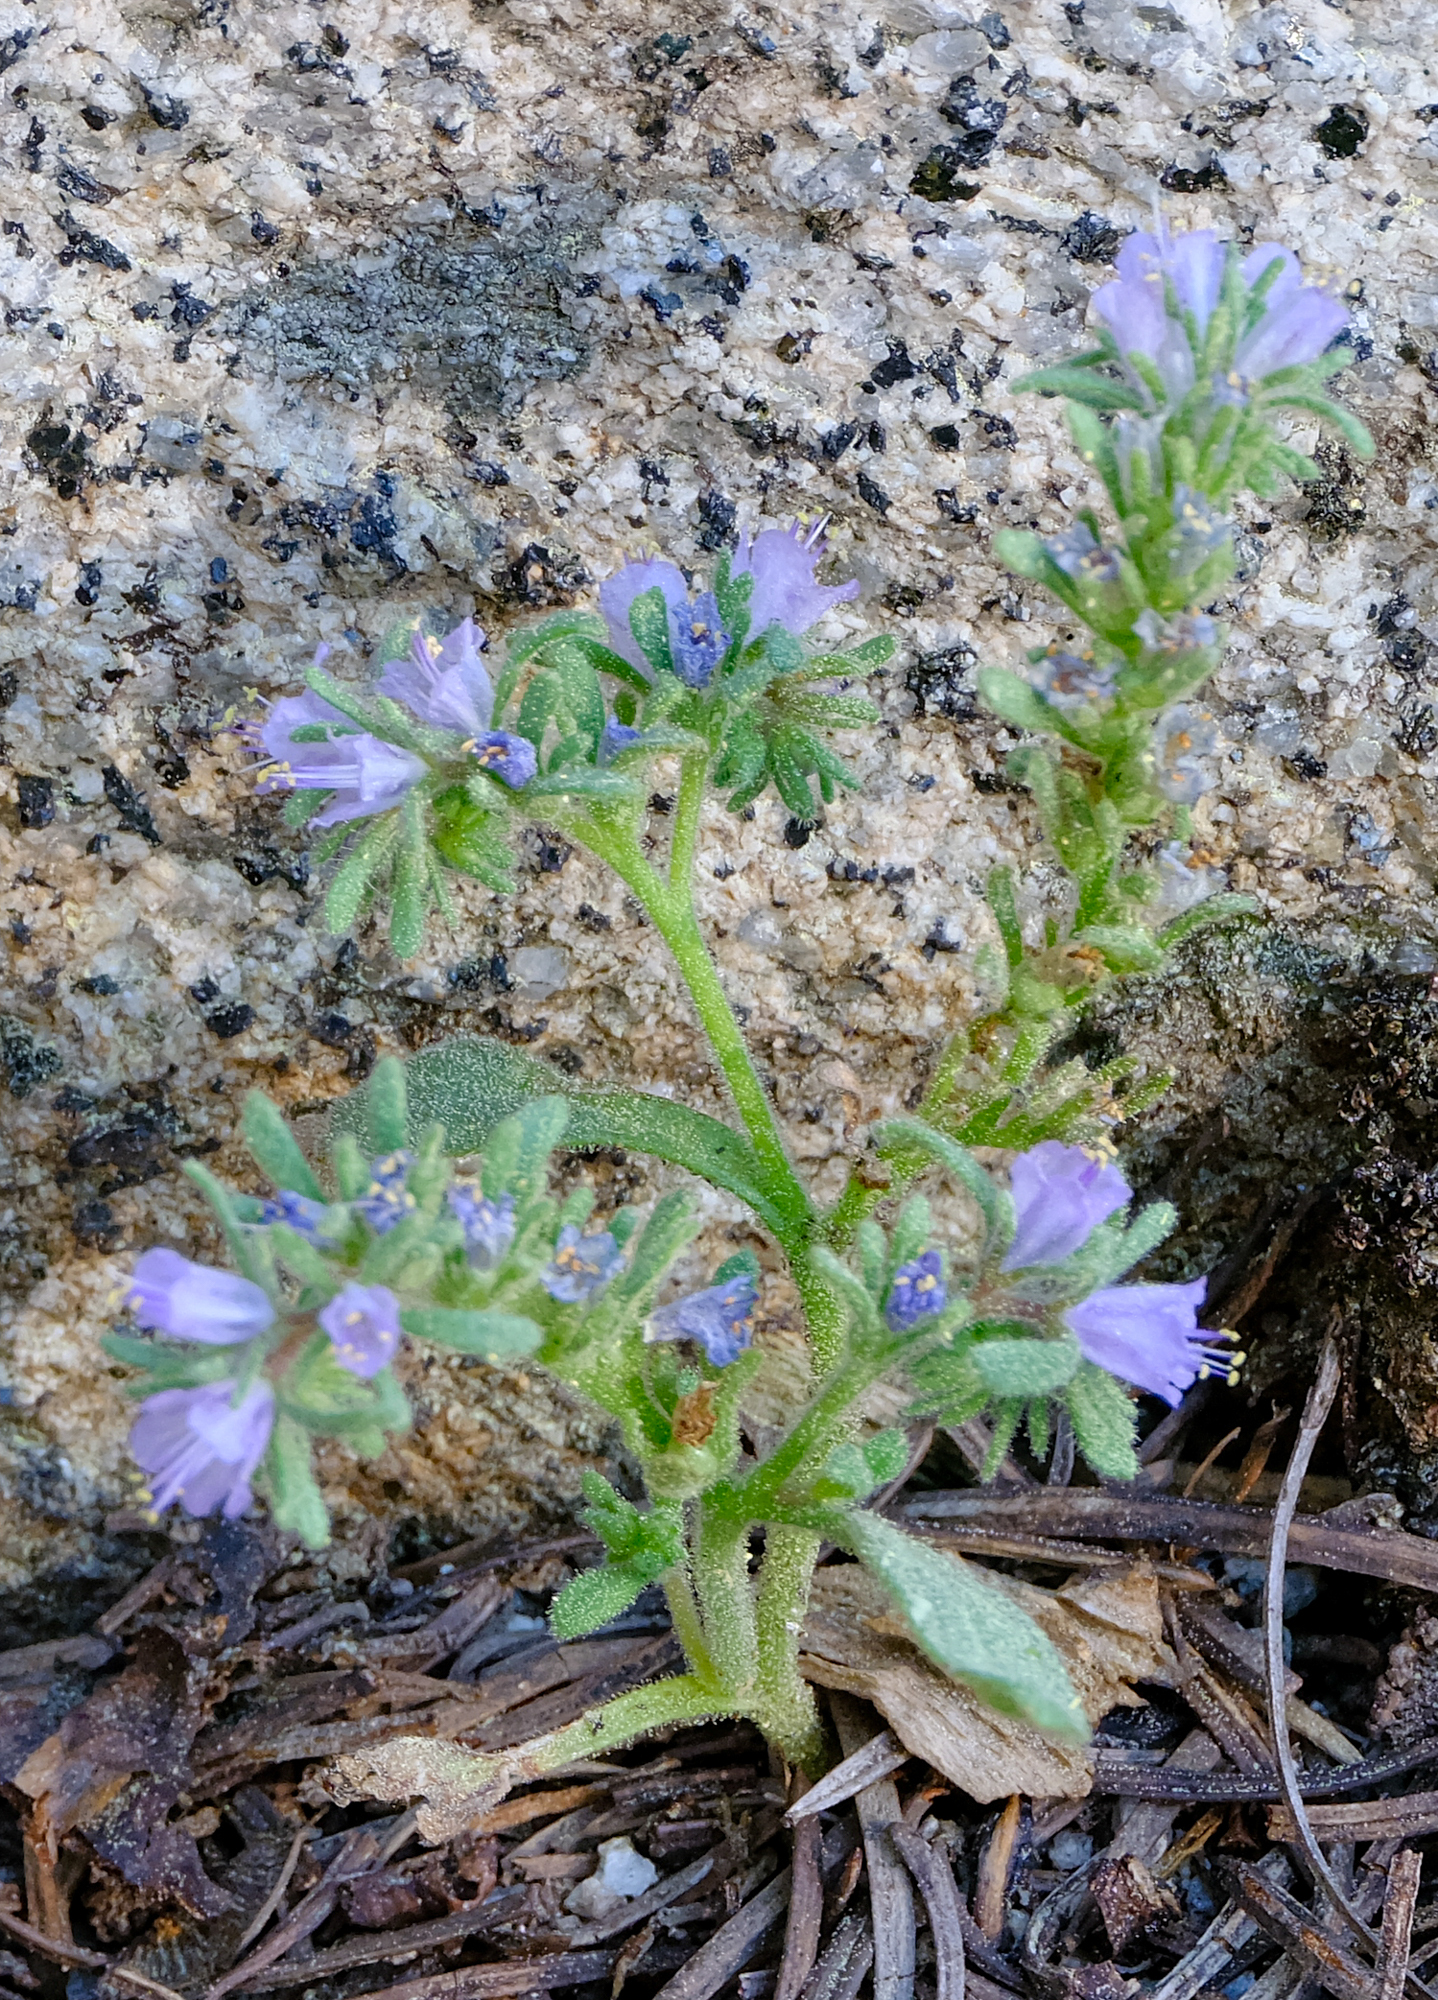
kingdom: Plantae
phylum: Tracheophyta
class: Magnoliopsida
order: Boraginales
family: Hydrophyllaceae
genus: Phacelia
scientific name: Phacelia quickii
